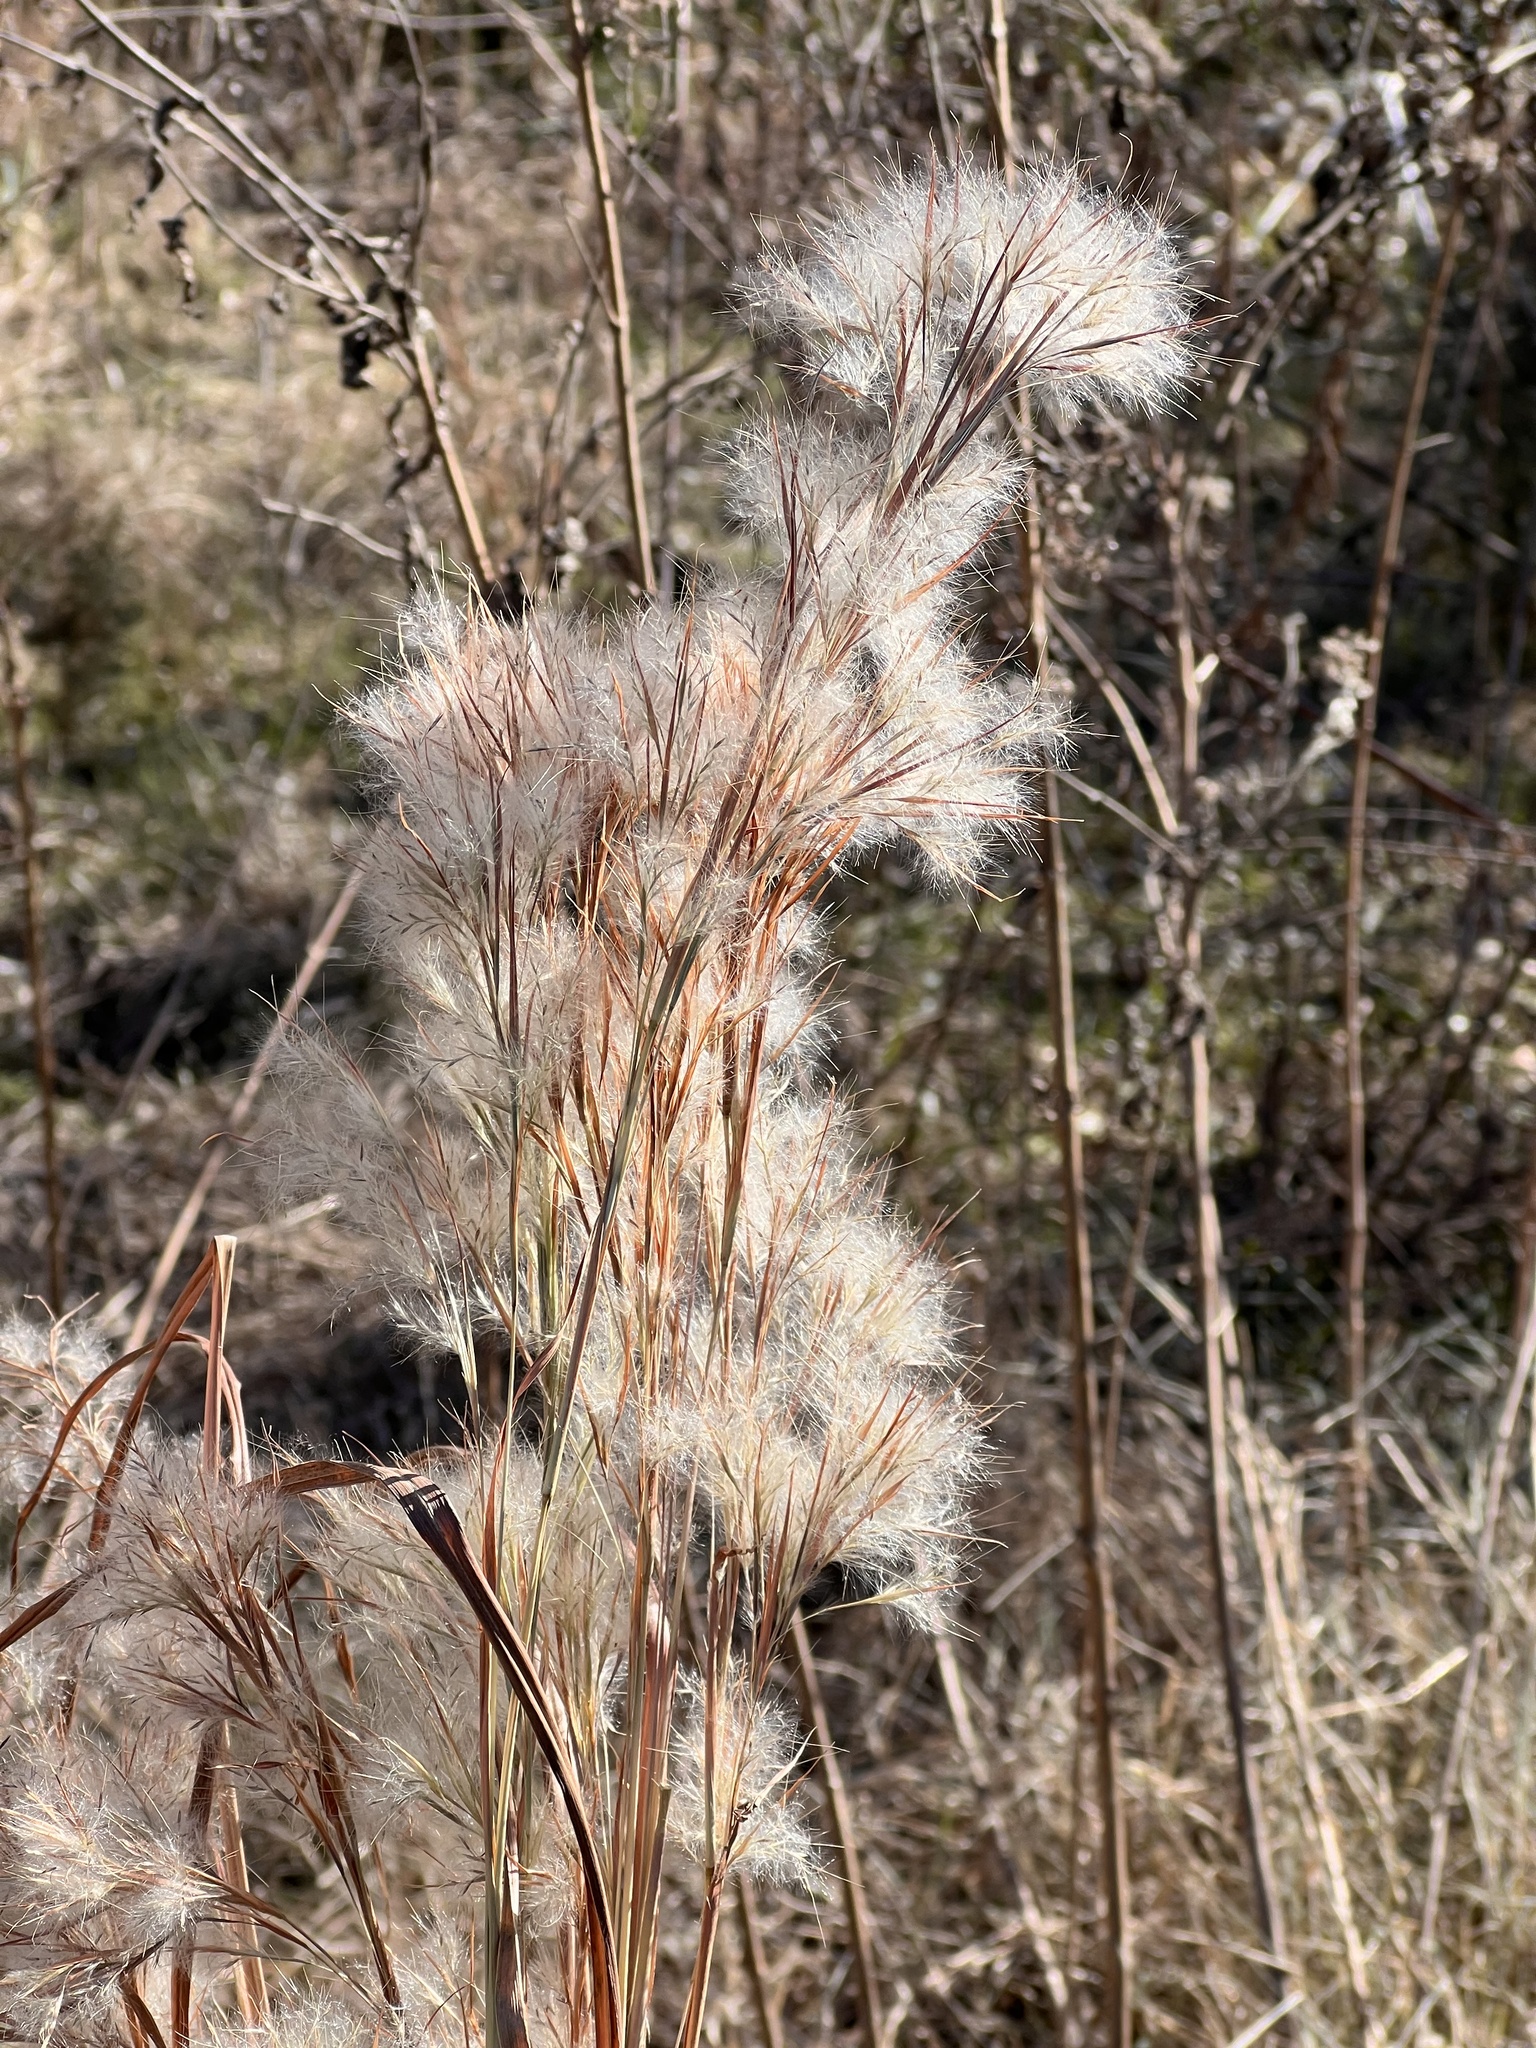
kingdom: Plantae
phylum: Tracheophyta
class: Liliopsida
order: Poales
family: Poaceae
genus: Andropogon
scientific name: Andropogon tenuispatheus
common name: Bushy bluestem
